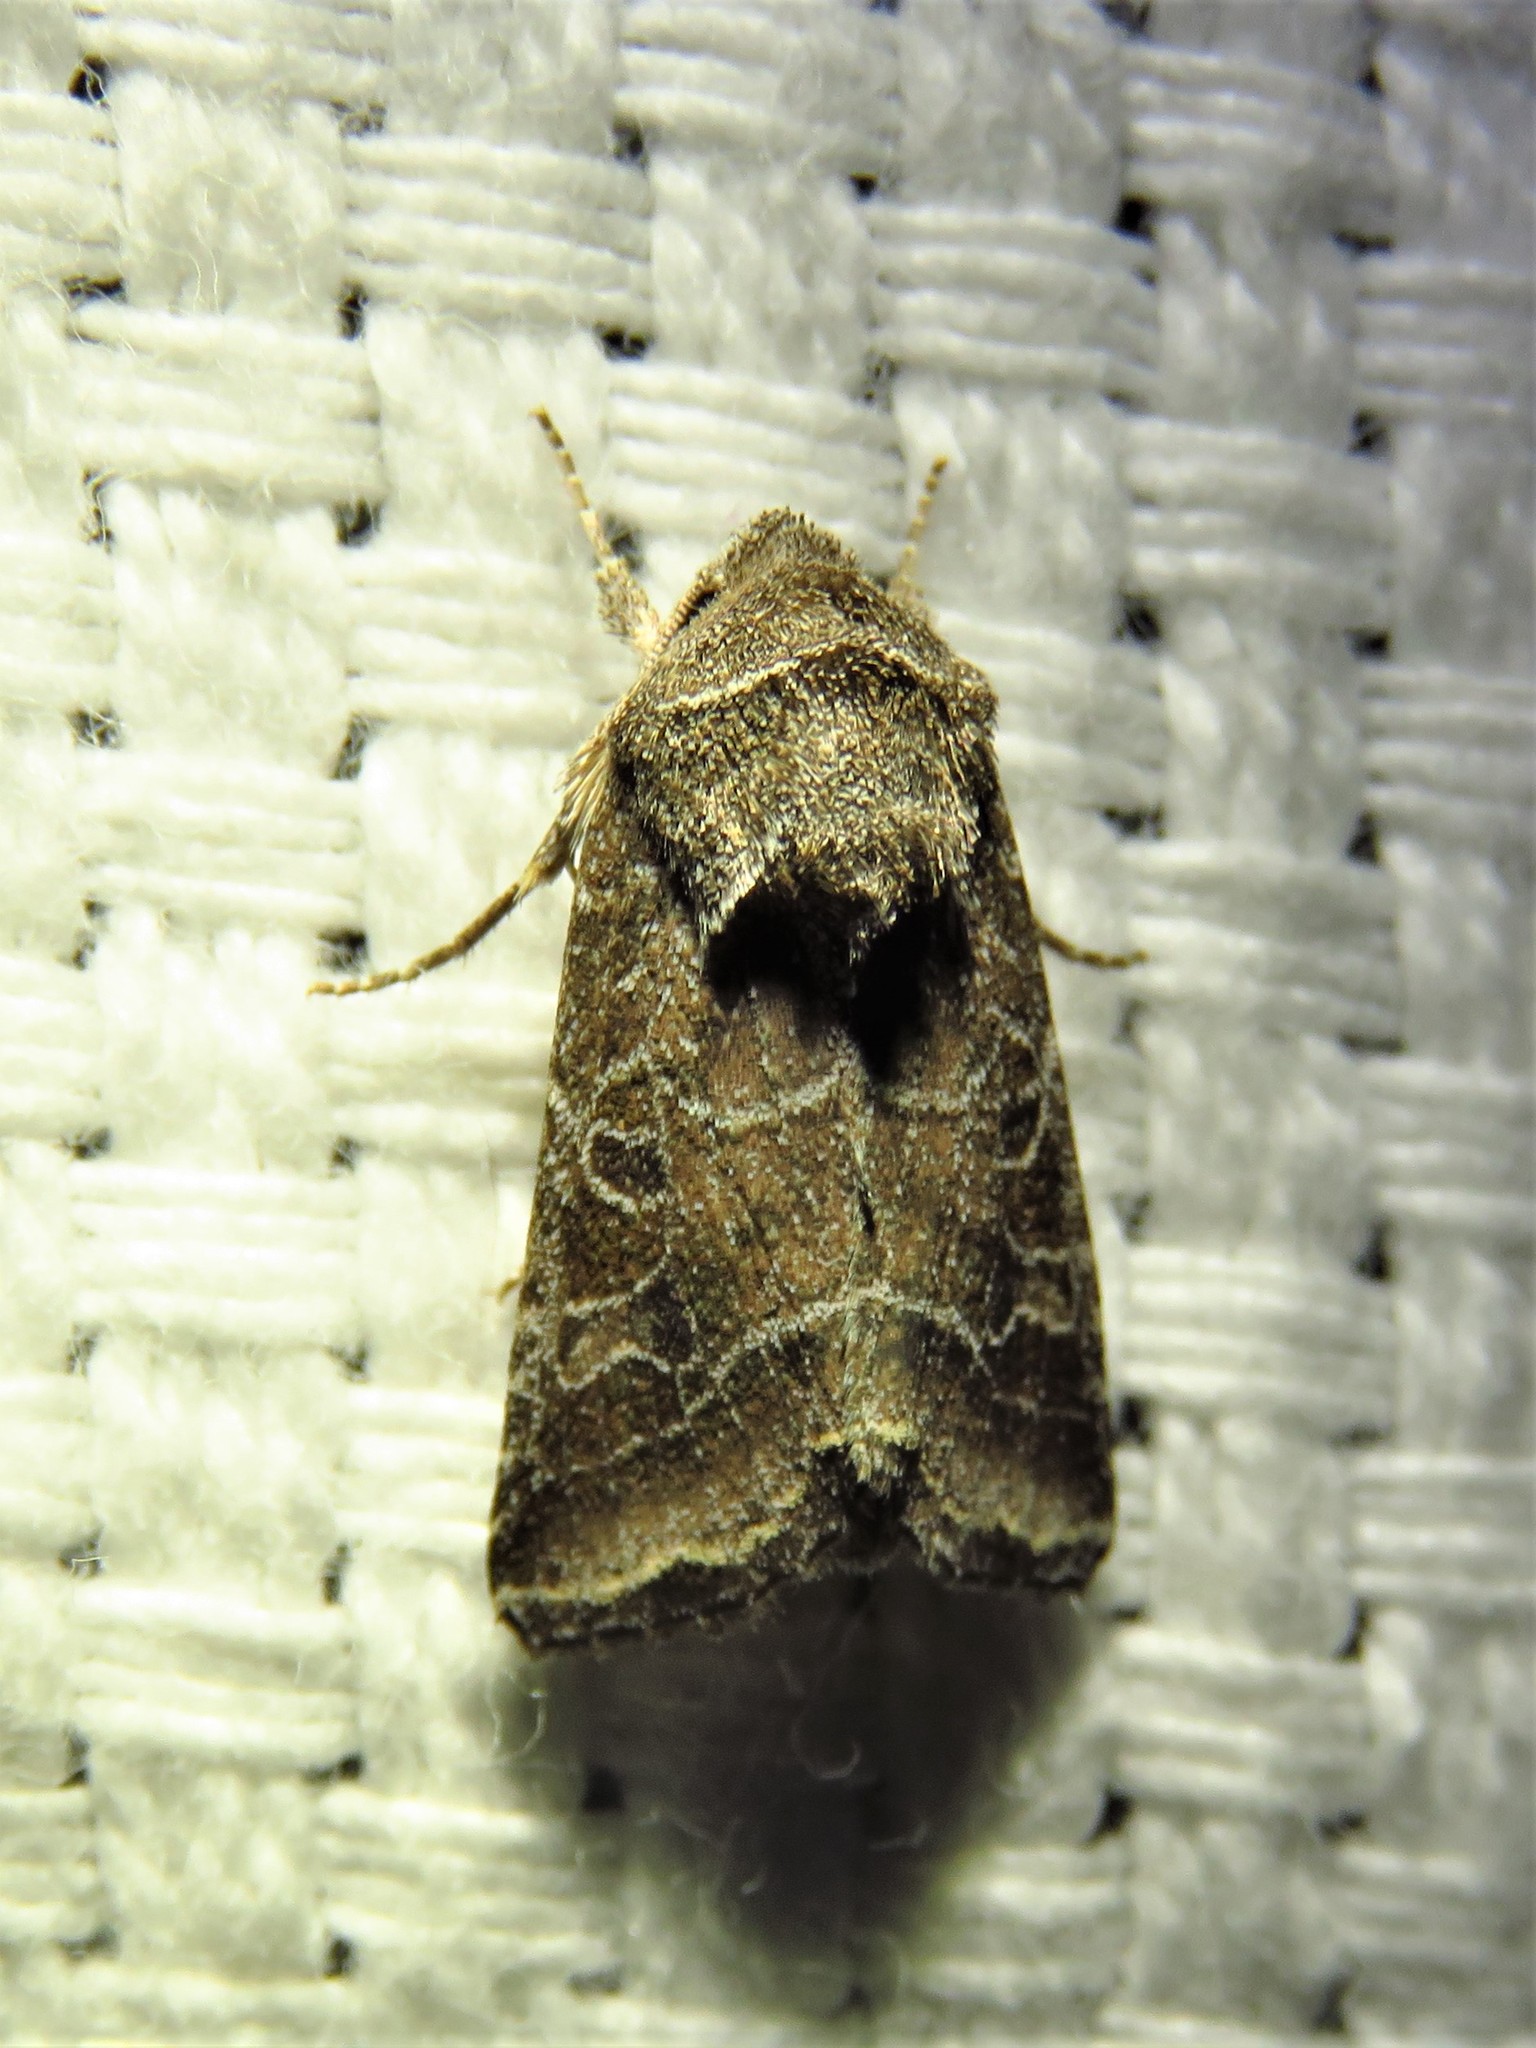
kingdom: Animalia
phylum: Arthropoda
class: Insecta
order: Lepidoptera
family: Noctuidae
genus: Lacinipolia
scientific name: Lacinipolia erecta
